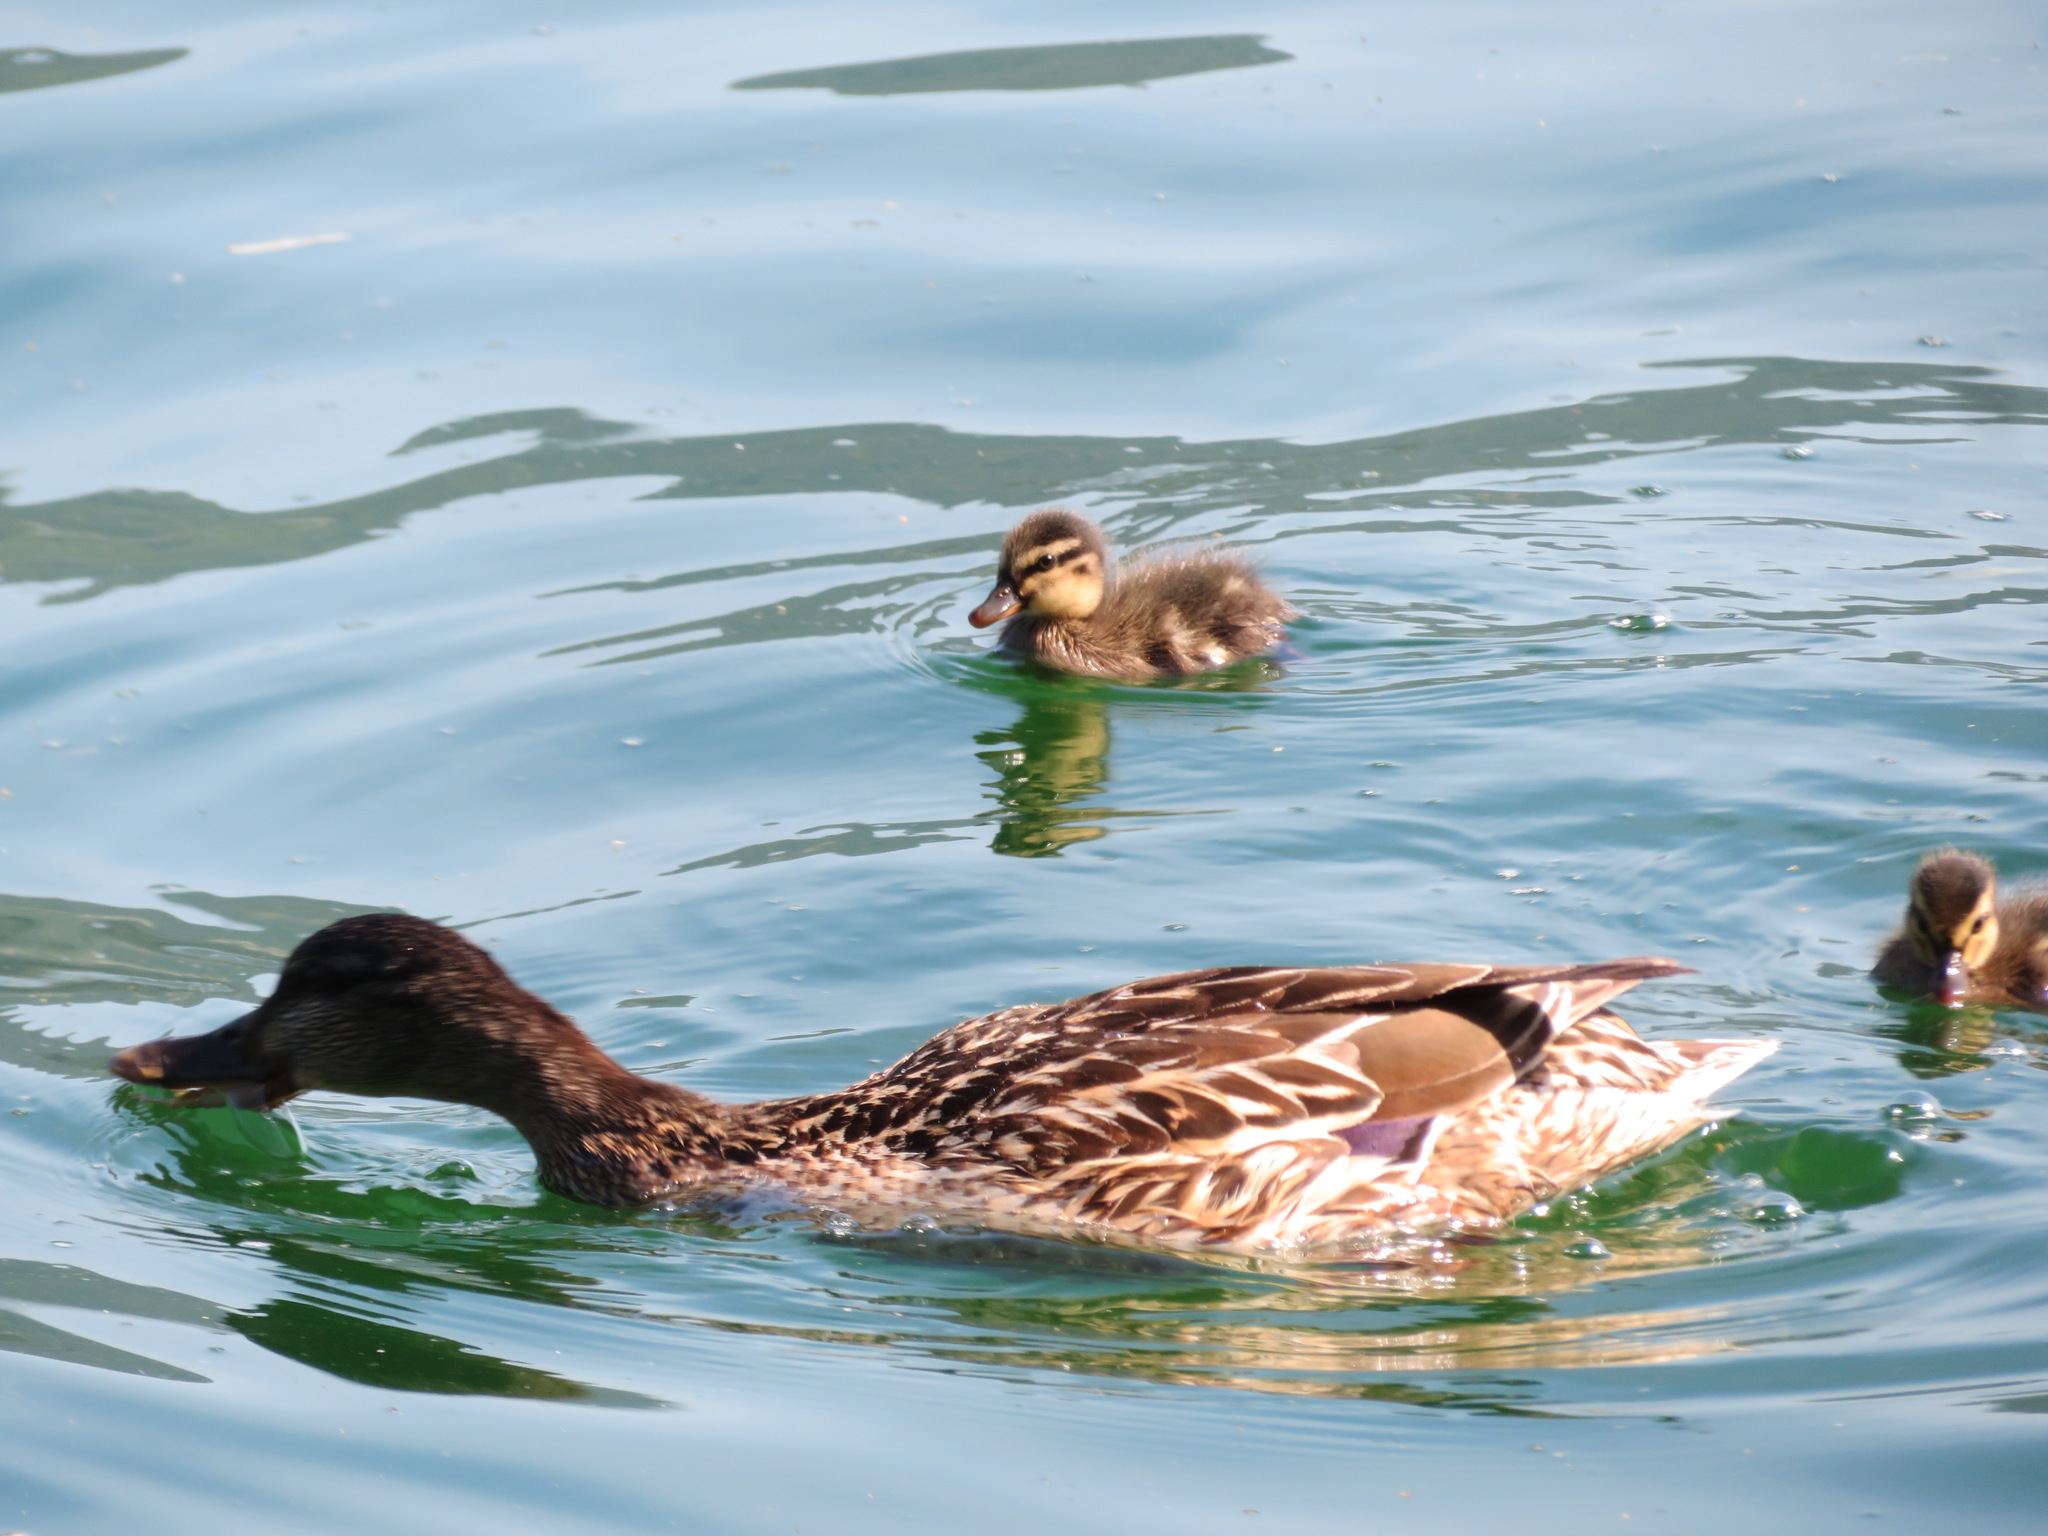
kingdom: Animalia
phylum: Chordata
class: Aves
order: Anseriformes
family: Anatidae
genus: Anas
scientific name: Anas platyrhynchos
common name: Mallard
